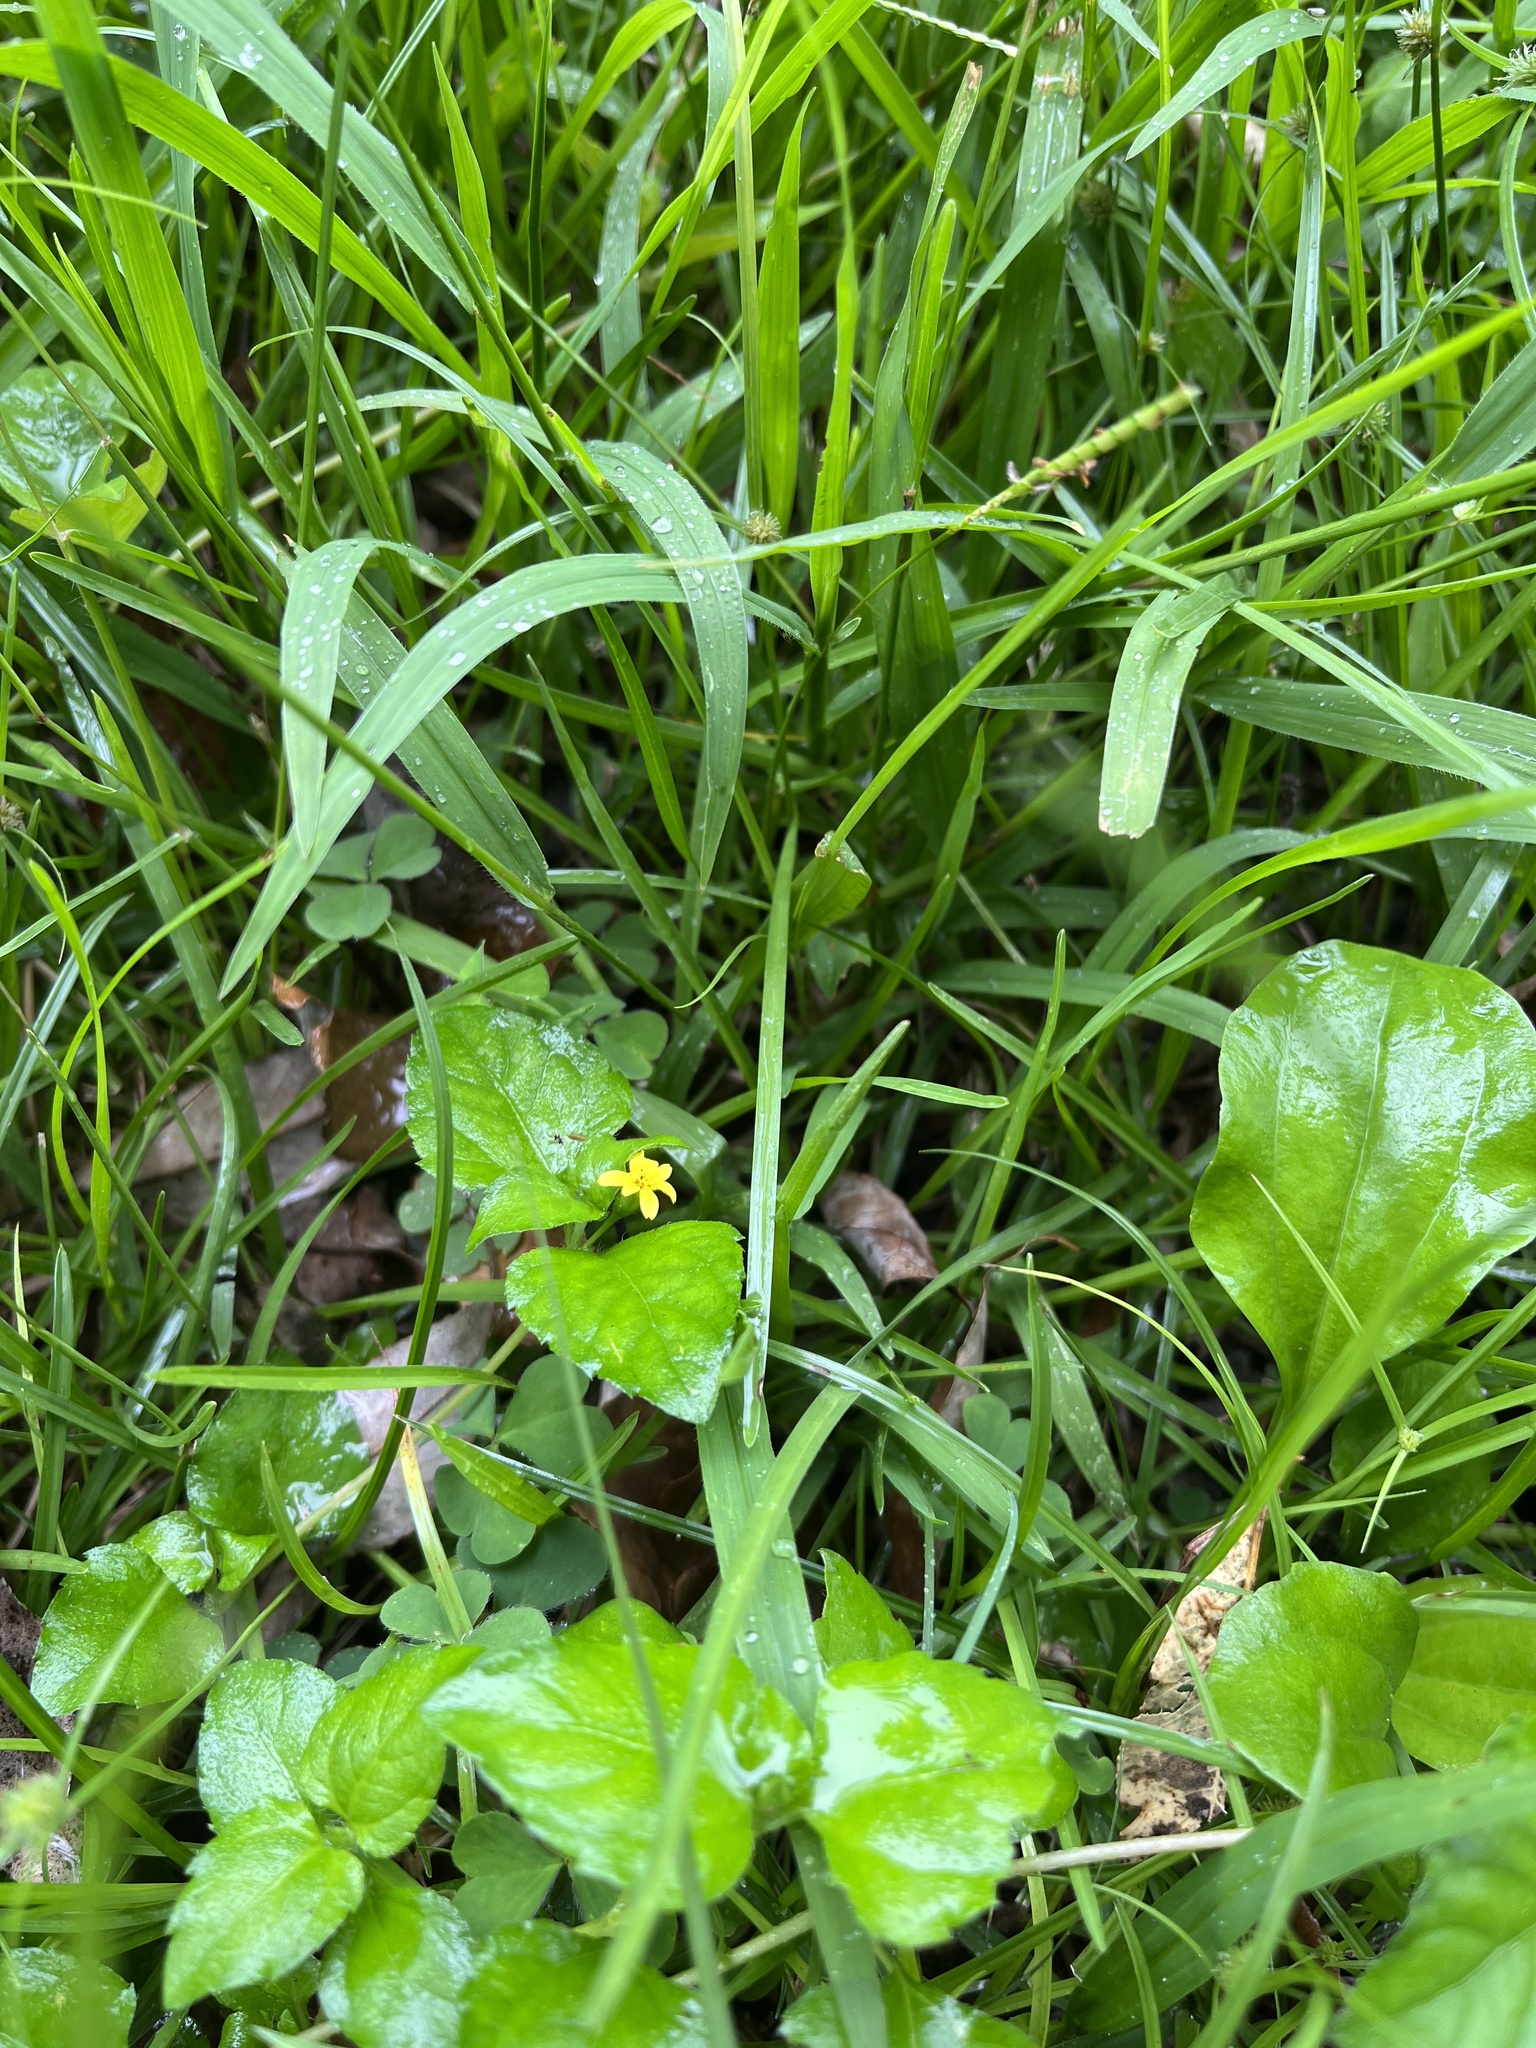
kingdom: Plantae
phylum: Tracheophyta
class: Magnoliopsida
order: Asterales
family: Asteraceae
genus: Calyptocarpus
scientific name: Calyptocarpus vialis
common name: Straggler daisy
